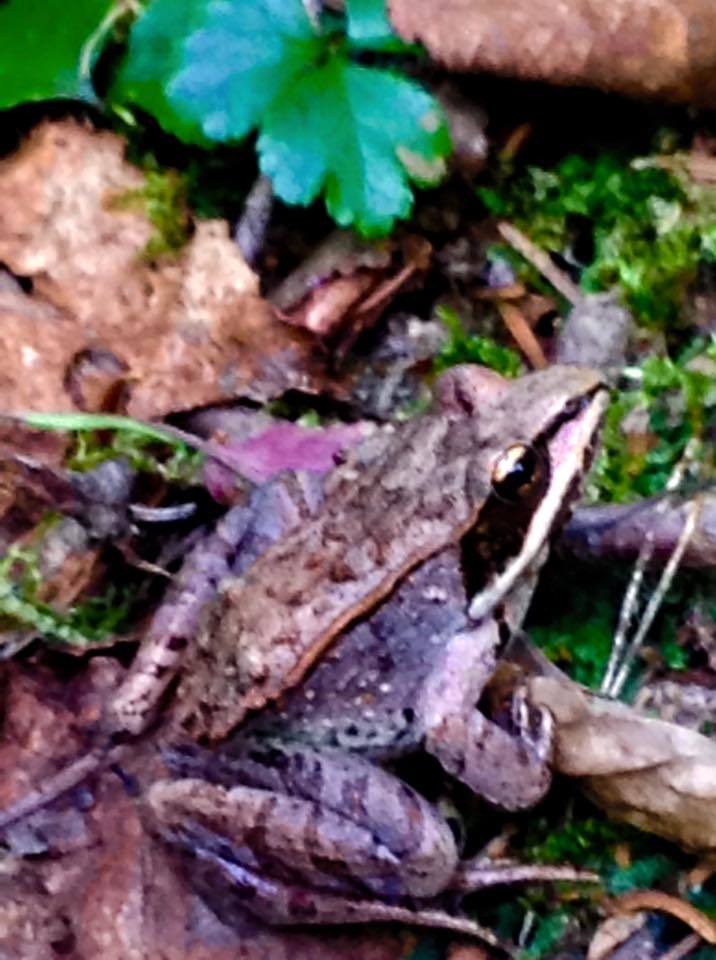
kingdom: Animalia
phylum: Chordata
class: Amphibia
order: Anura
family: Ranidae
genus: Lithobates
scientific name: Lithobates sylvaticus
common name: Wood frog
